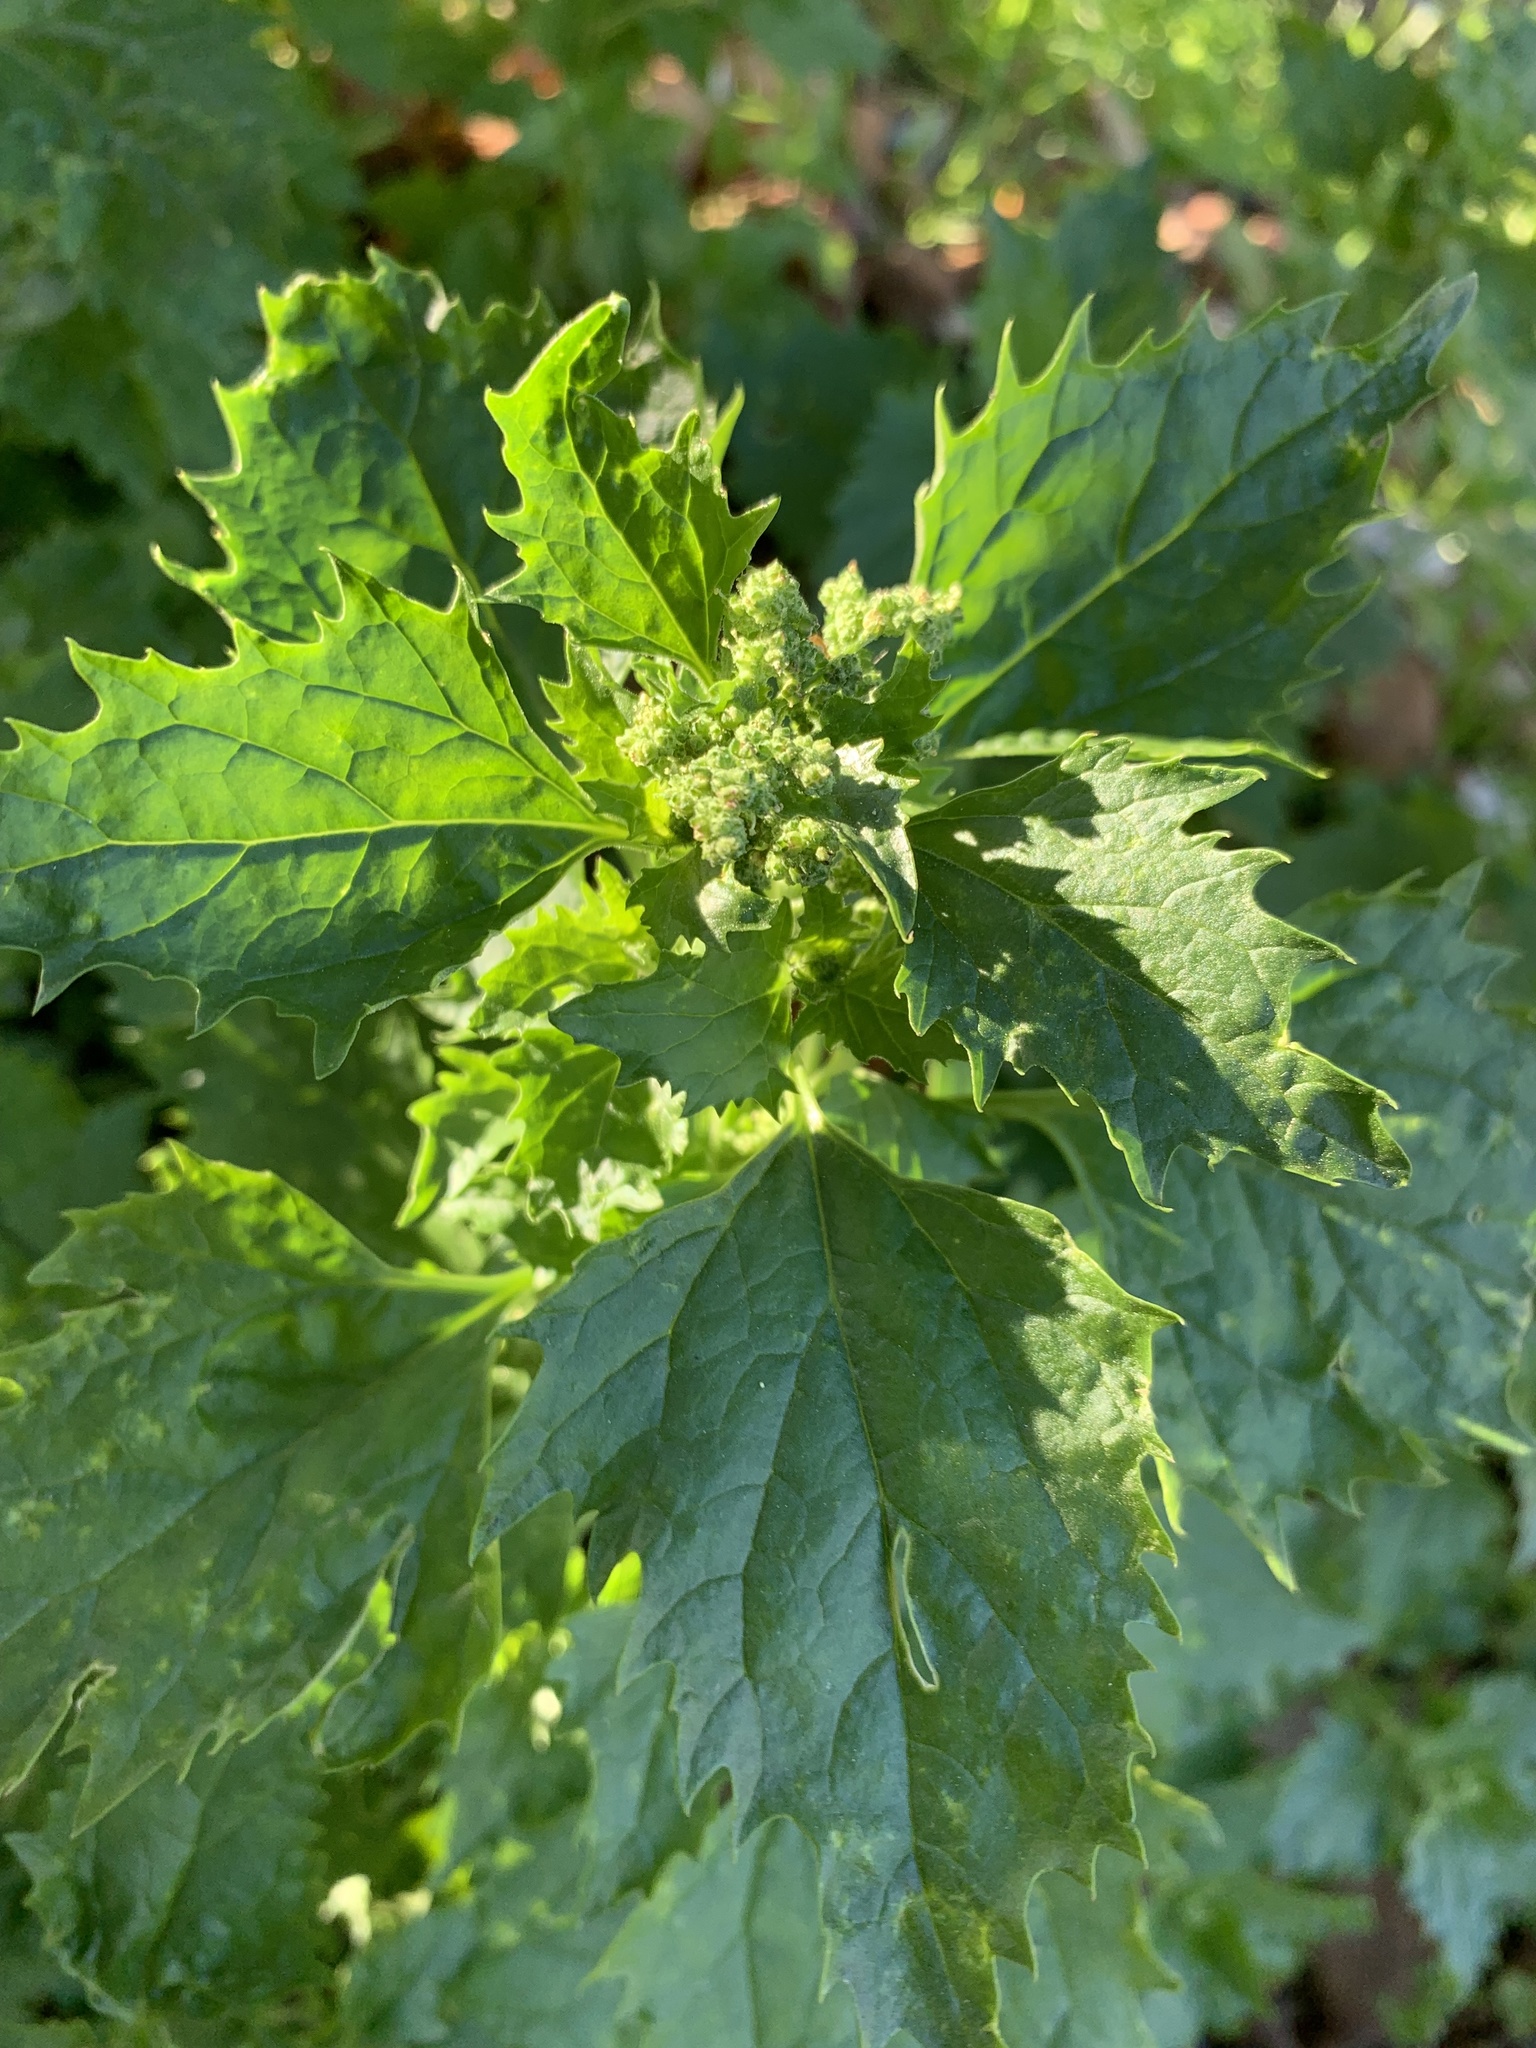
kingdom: Plantae
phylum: Tracheophyta
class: Magnoliopsida
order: Caryophyllales
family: Amaranthaceae
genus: Chenopodiastrum
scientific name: Chenopodiastrum murale
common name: Sowbane
